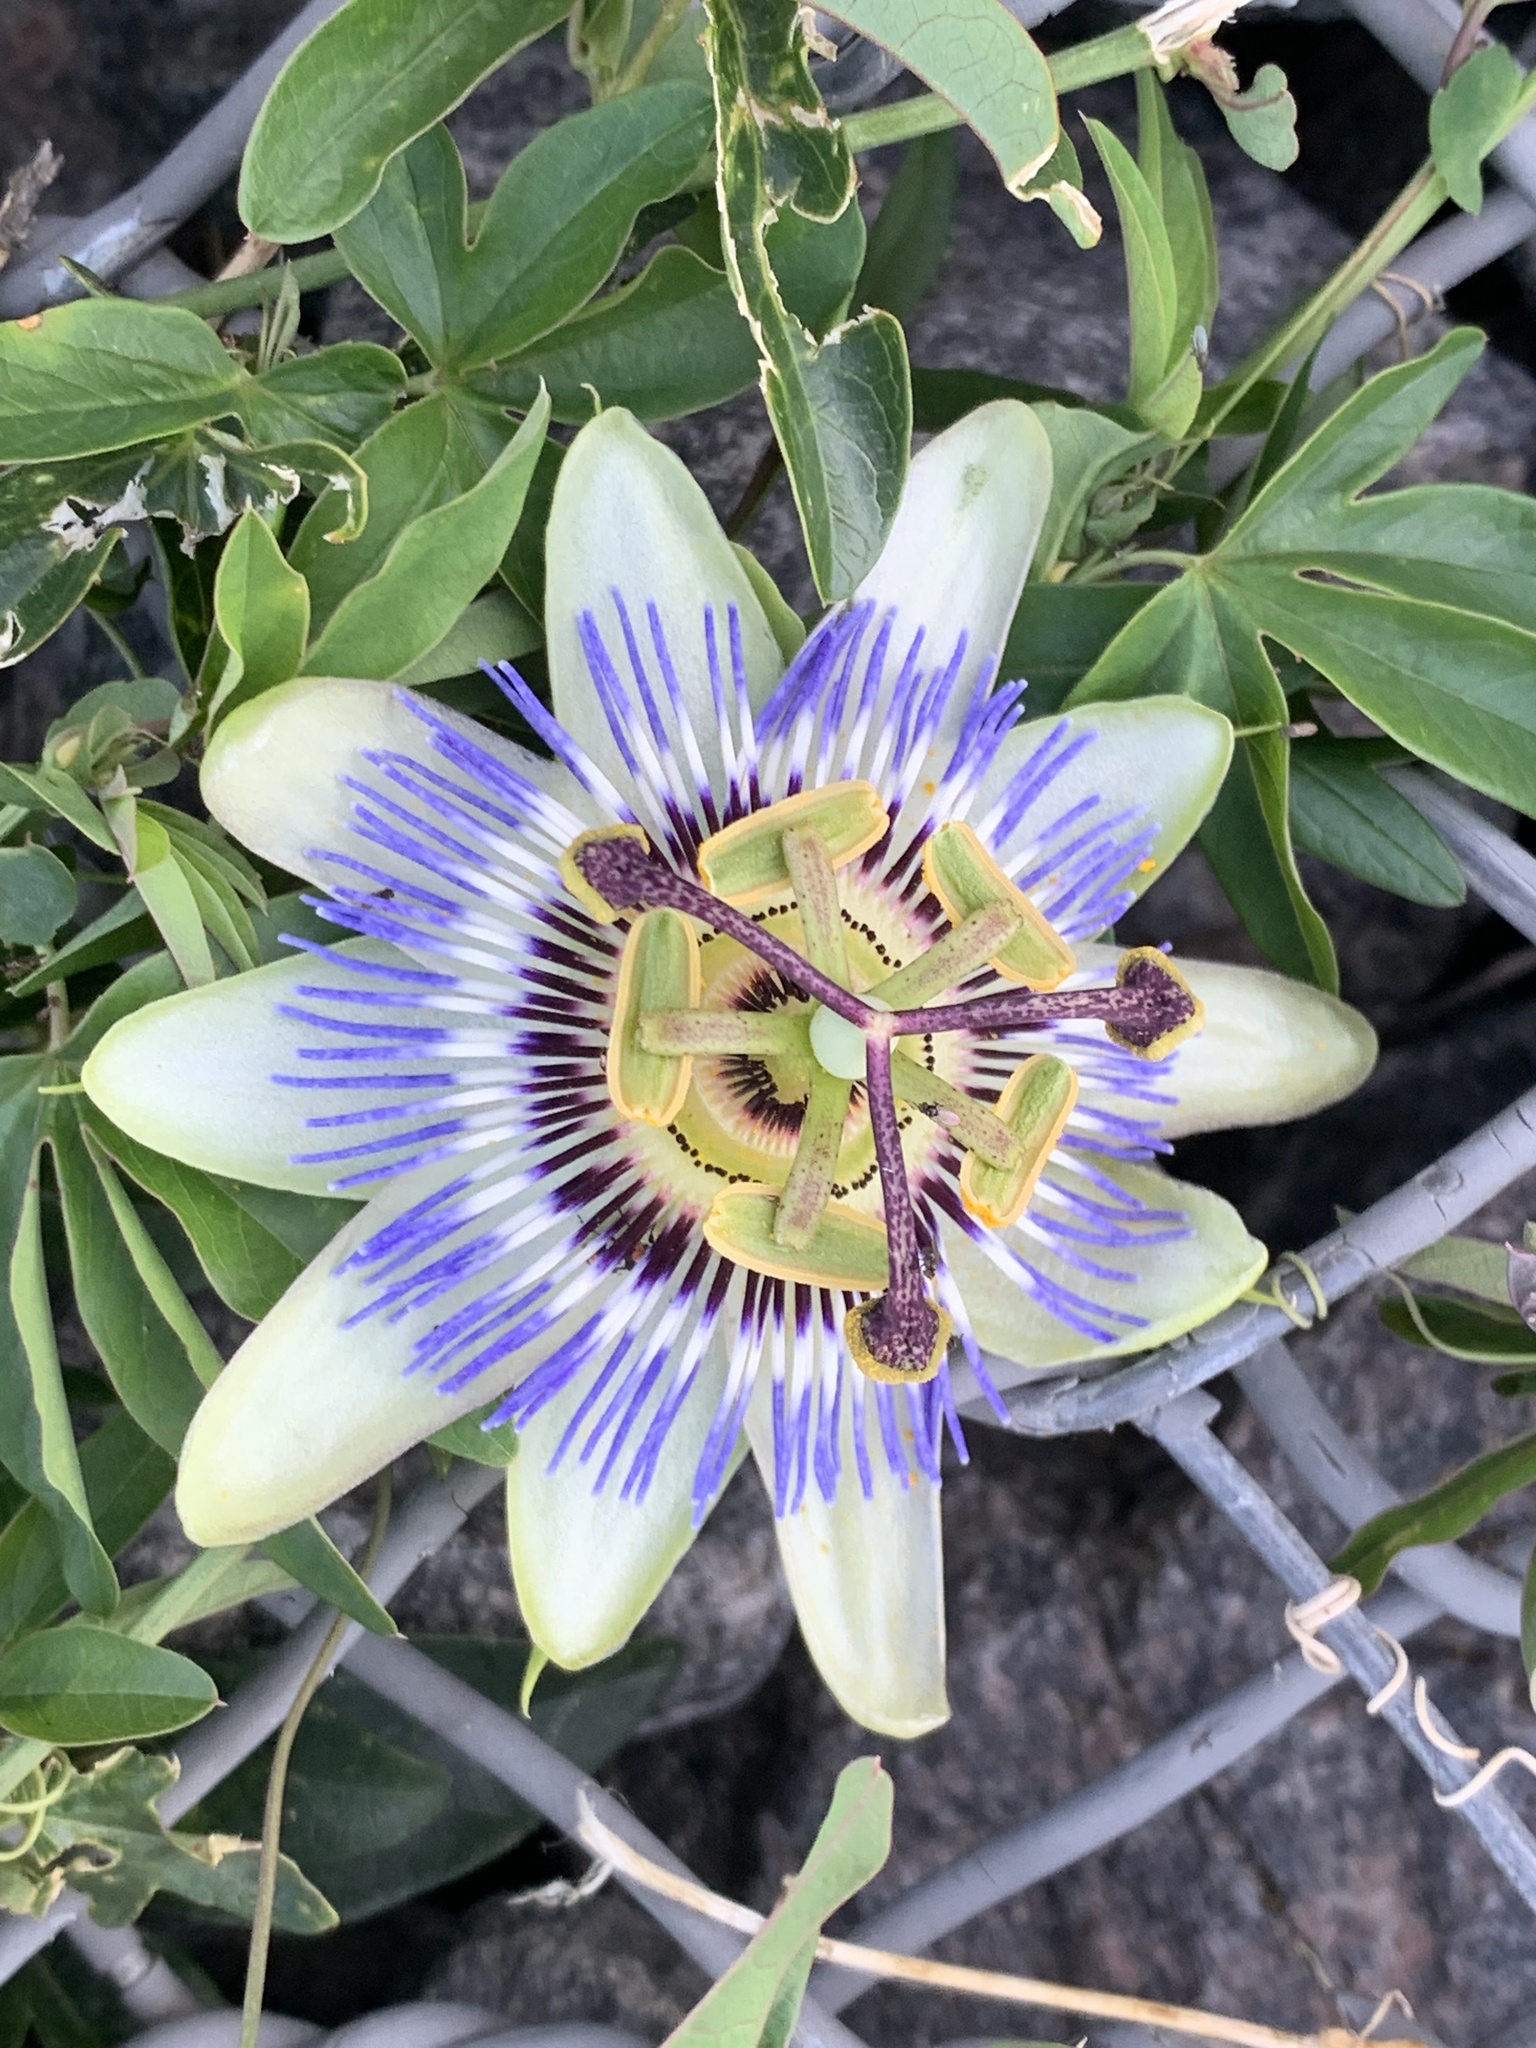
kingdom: Plantae
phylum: Tracheophyta
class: Magnoliopsida
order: Malpighiales
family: Passifloraceae
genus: Passiflora
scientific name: Passiflora caerulea
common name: Blue passionflower
